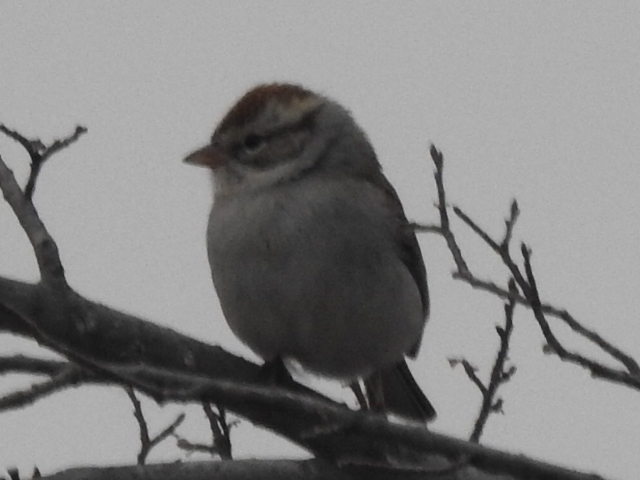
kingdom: Animalia
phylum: Chordata
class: Aves
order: Passeriformes
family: Passerellidae
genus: Spizella
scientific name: Spizella passerina
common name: Chipping sparrow
